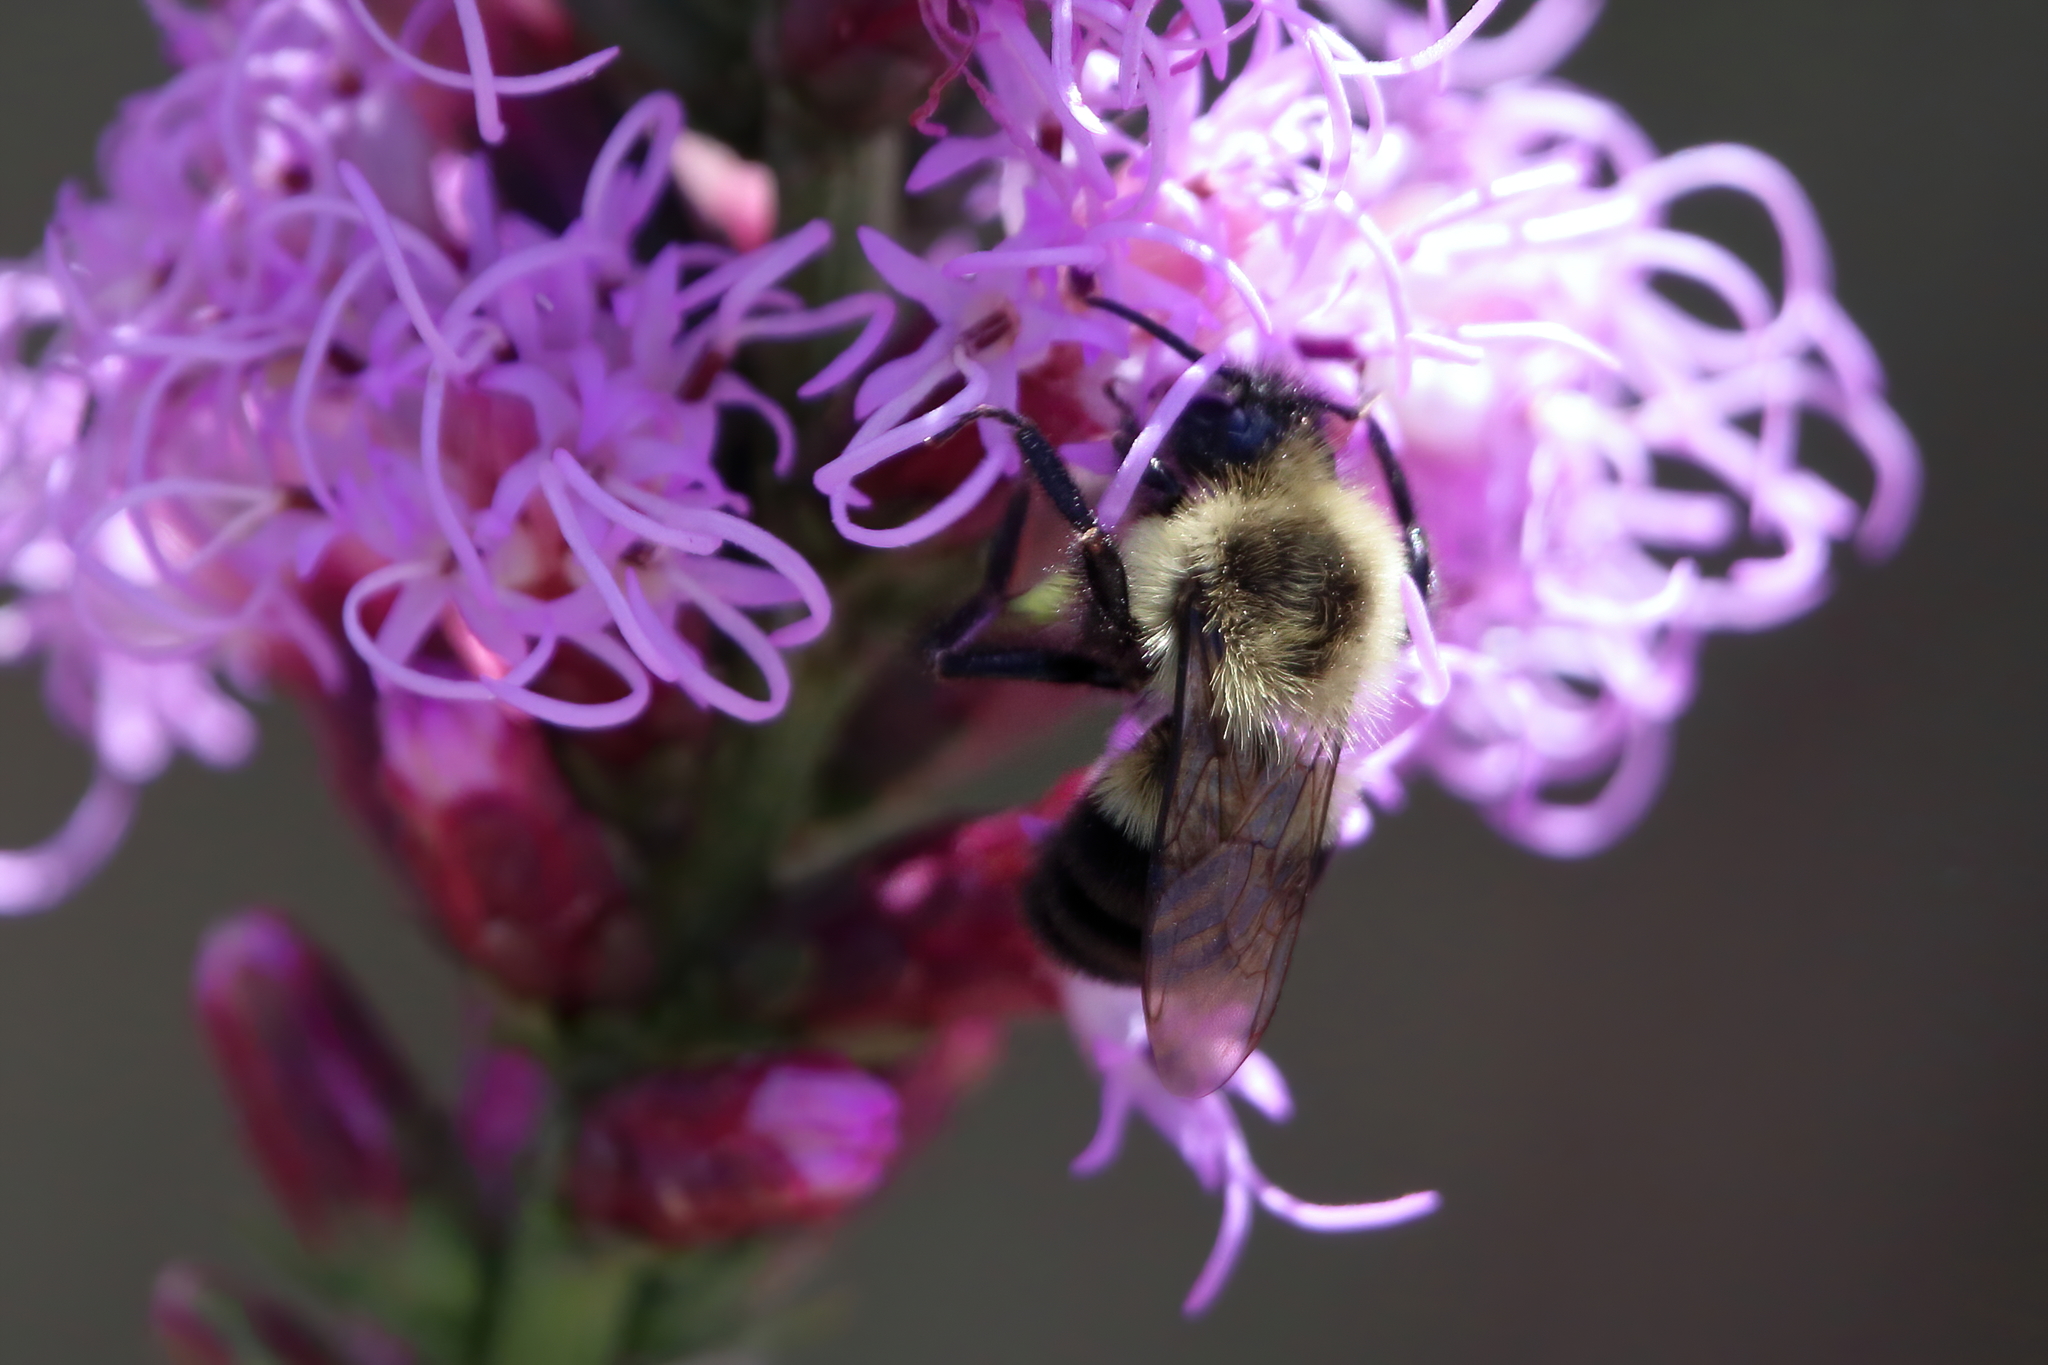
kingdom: Animalia
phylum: Arthropoda
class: Insecta
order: Hymenoptera
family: Apidae
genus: Bombus
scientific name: Bombus impatiens
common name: Common eastern bumble bee
